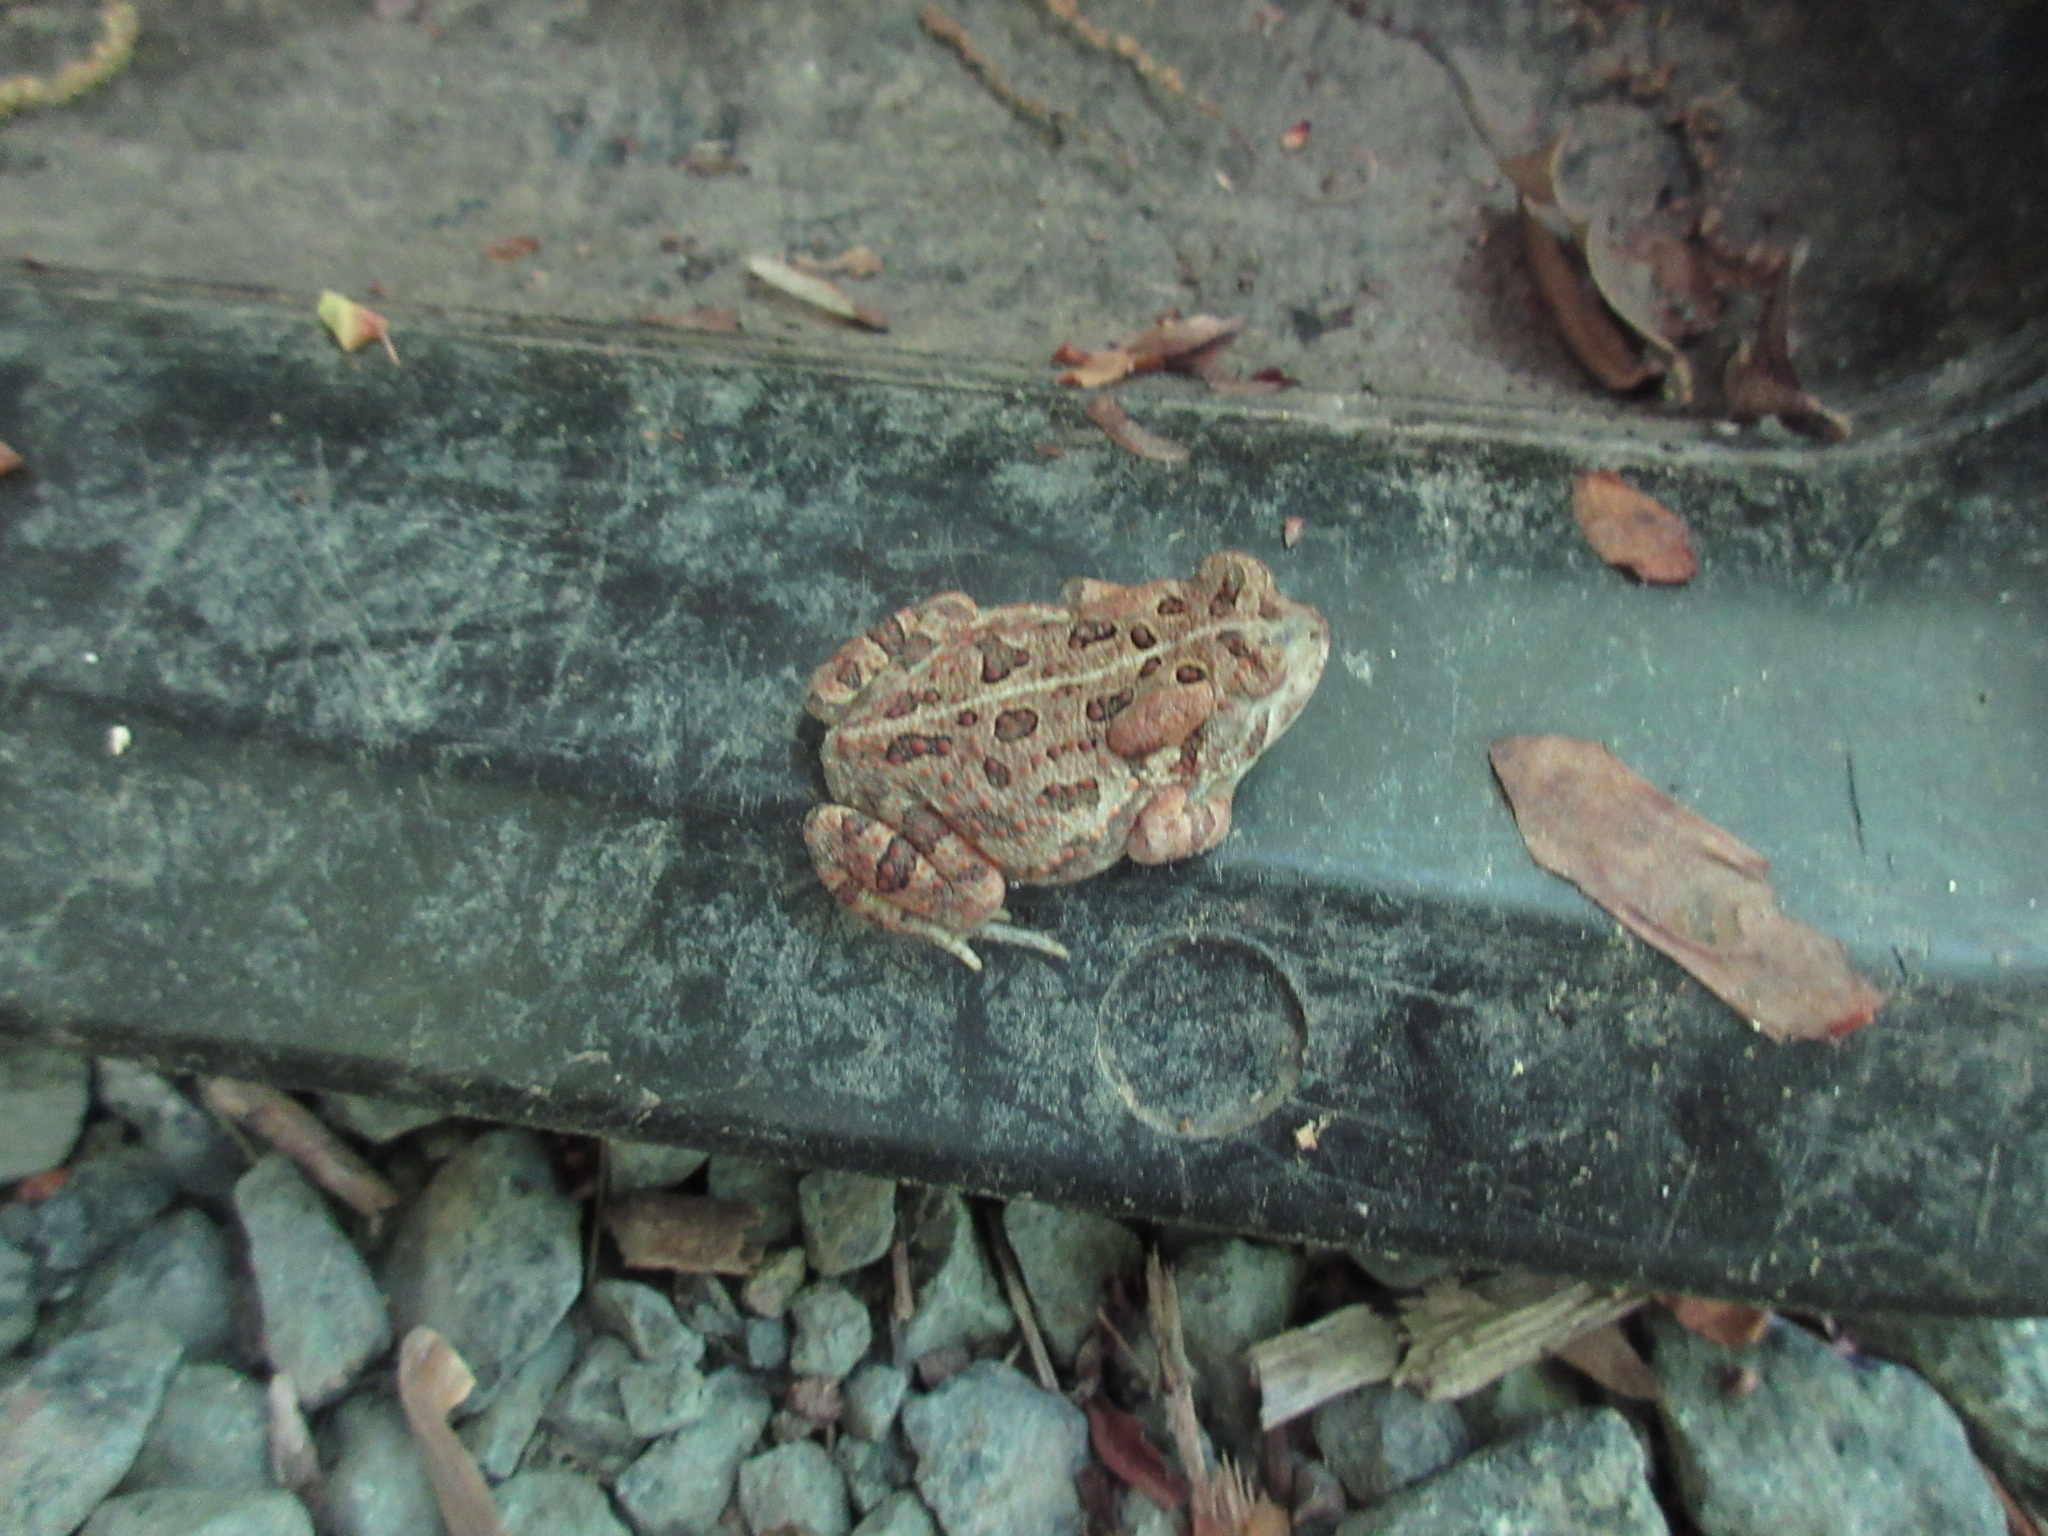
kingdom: Animalia
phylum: Chordata
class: Amphibia
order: Anura
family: Bufonidae
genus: Anaxyrus
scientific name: Anaxyrus fowleri
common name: Fowler's toad
